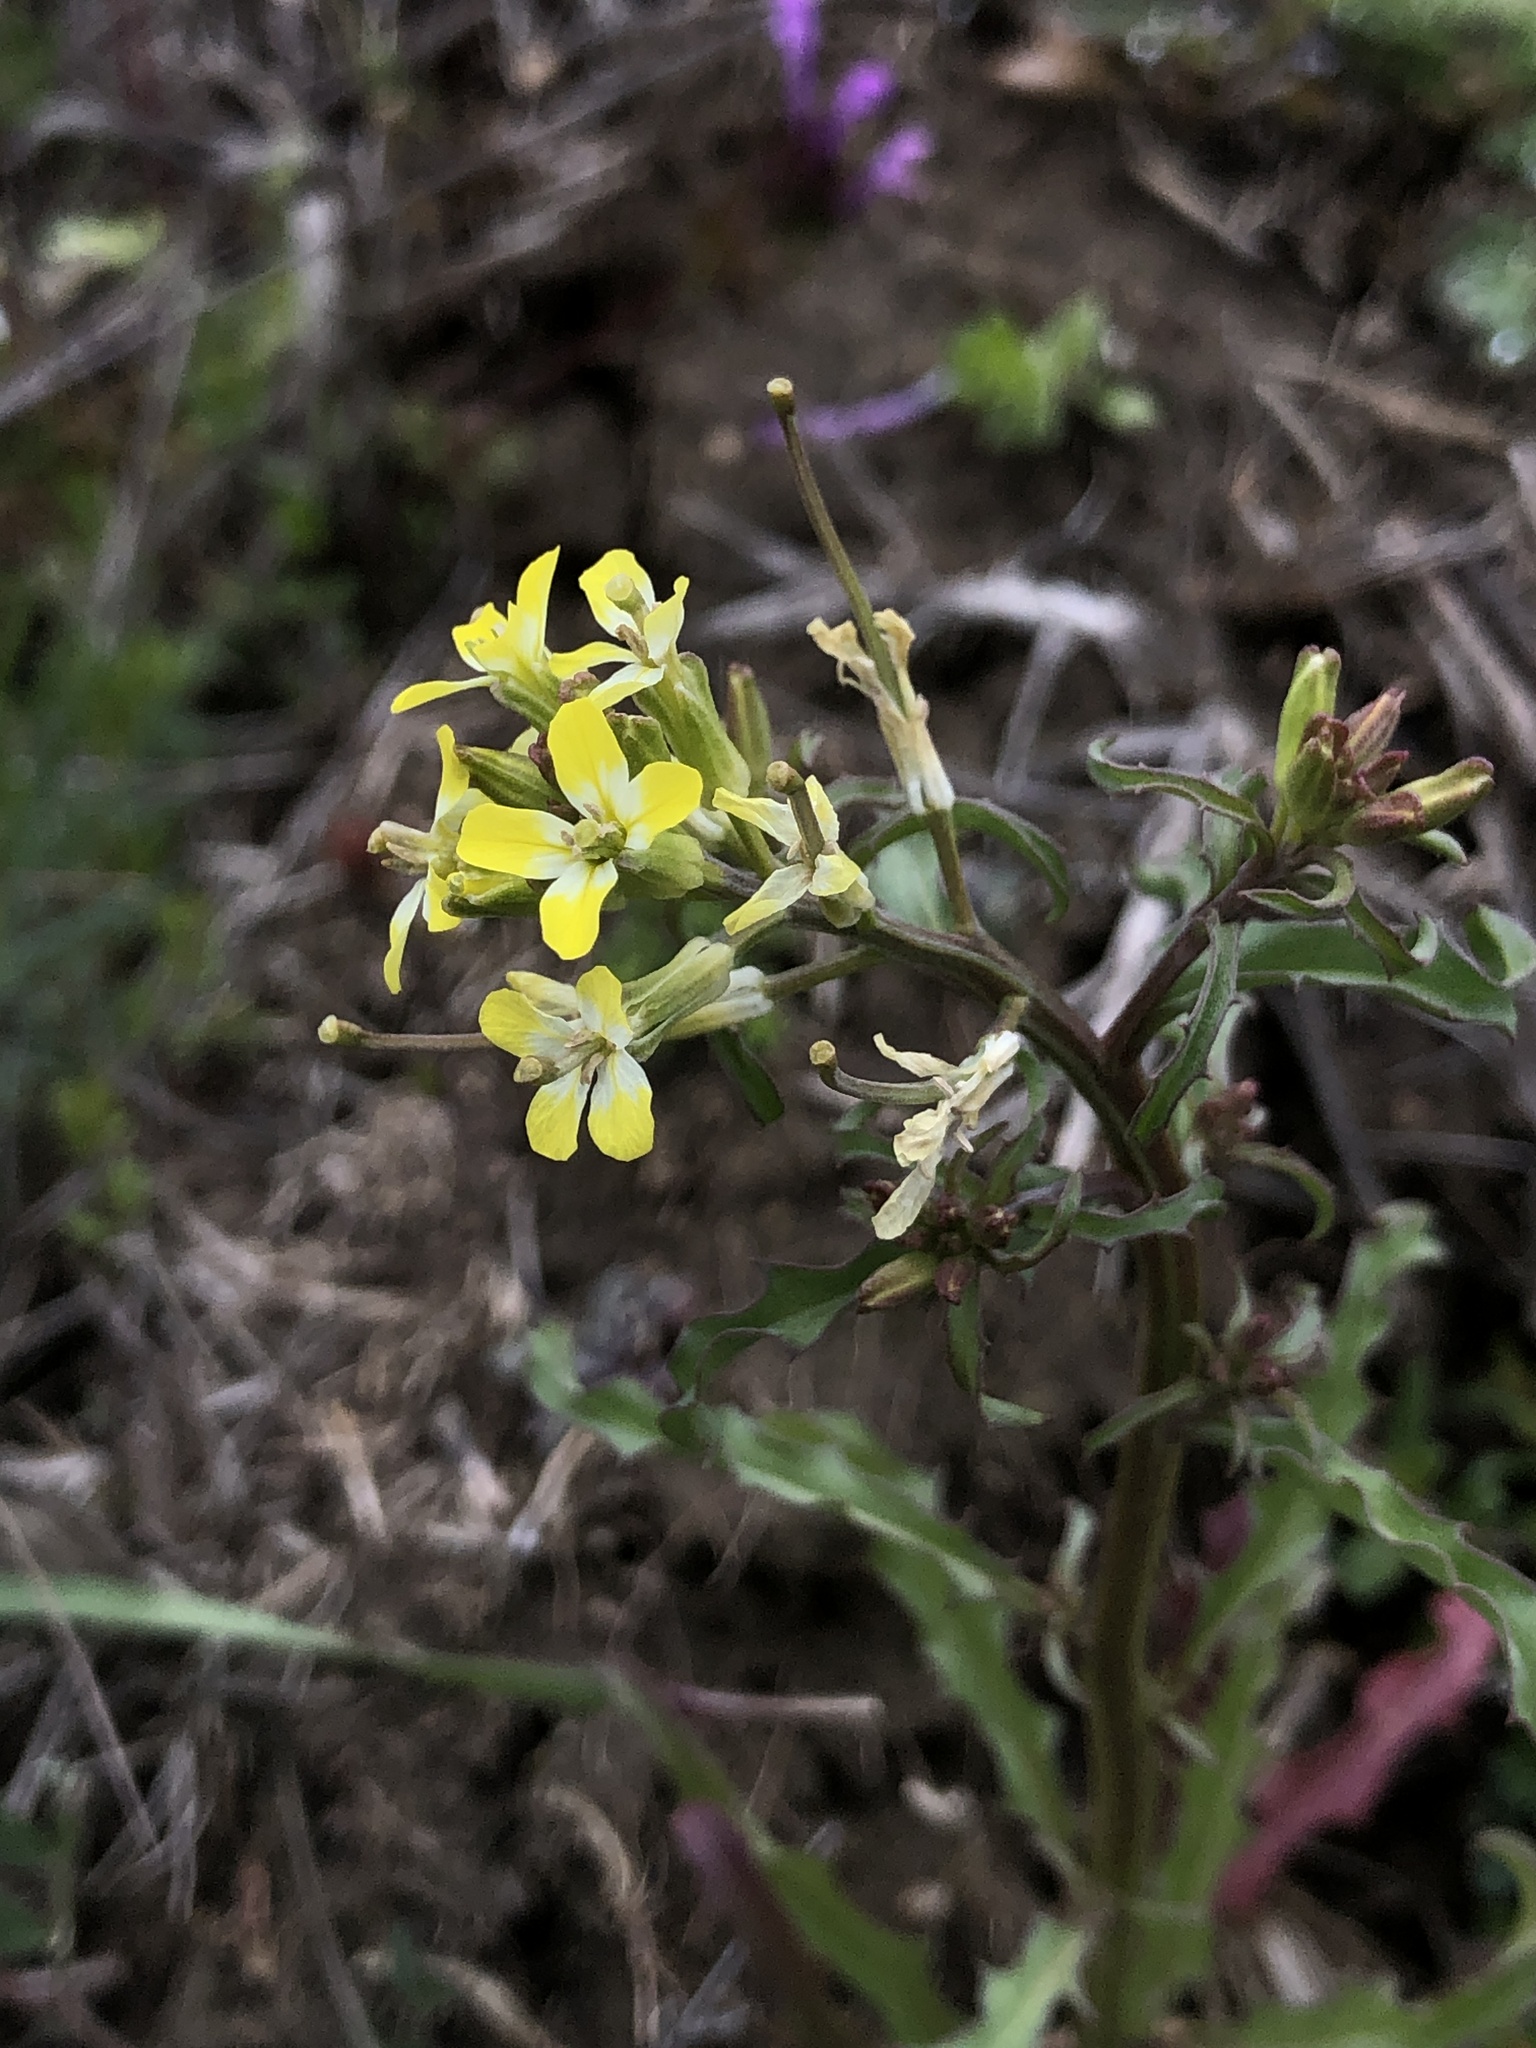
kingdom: Plantae
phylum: Tracheophyta
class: Magnoliopsida
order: Brassicales
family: Brassicaceae
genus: Erysimum
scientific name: Erysimum repandum
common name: Spreading wallflower
